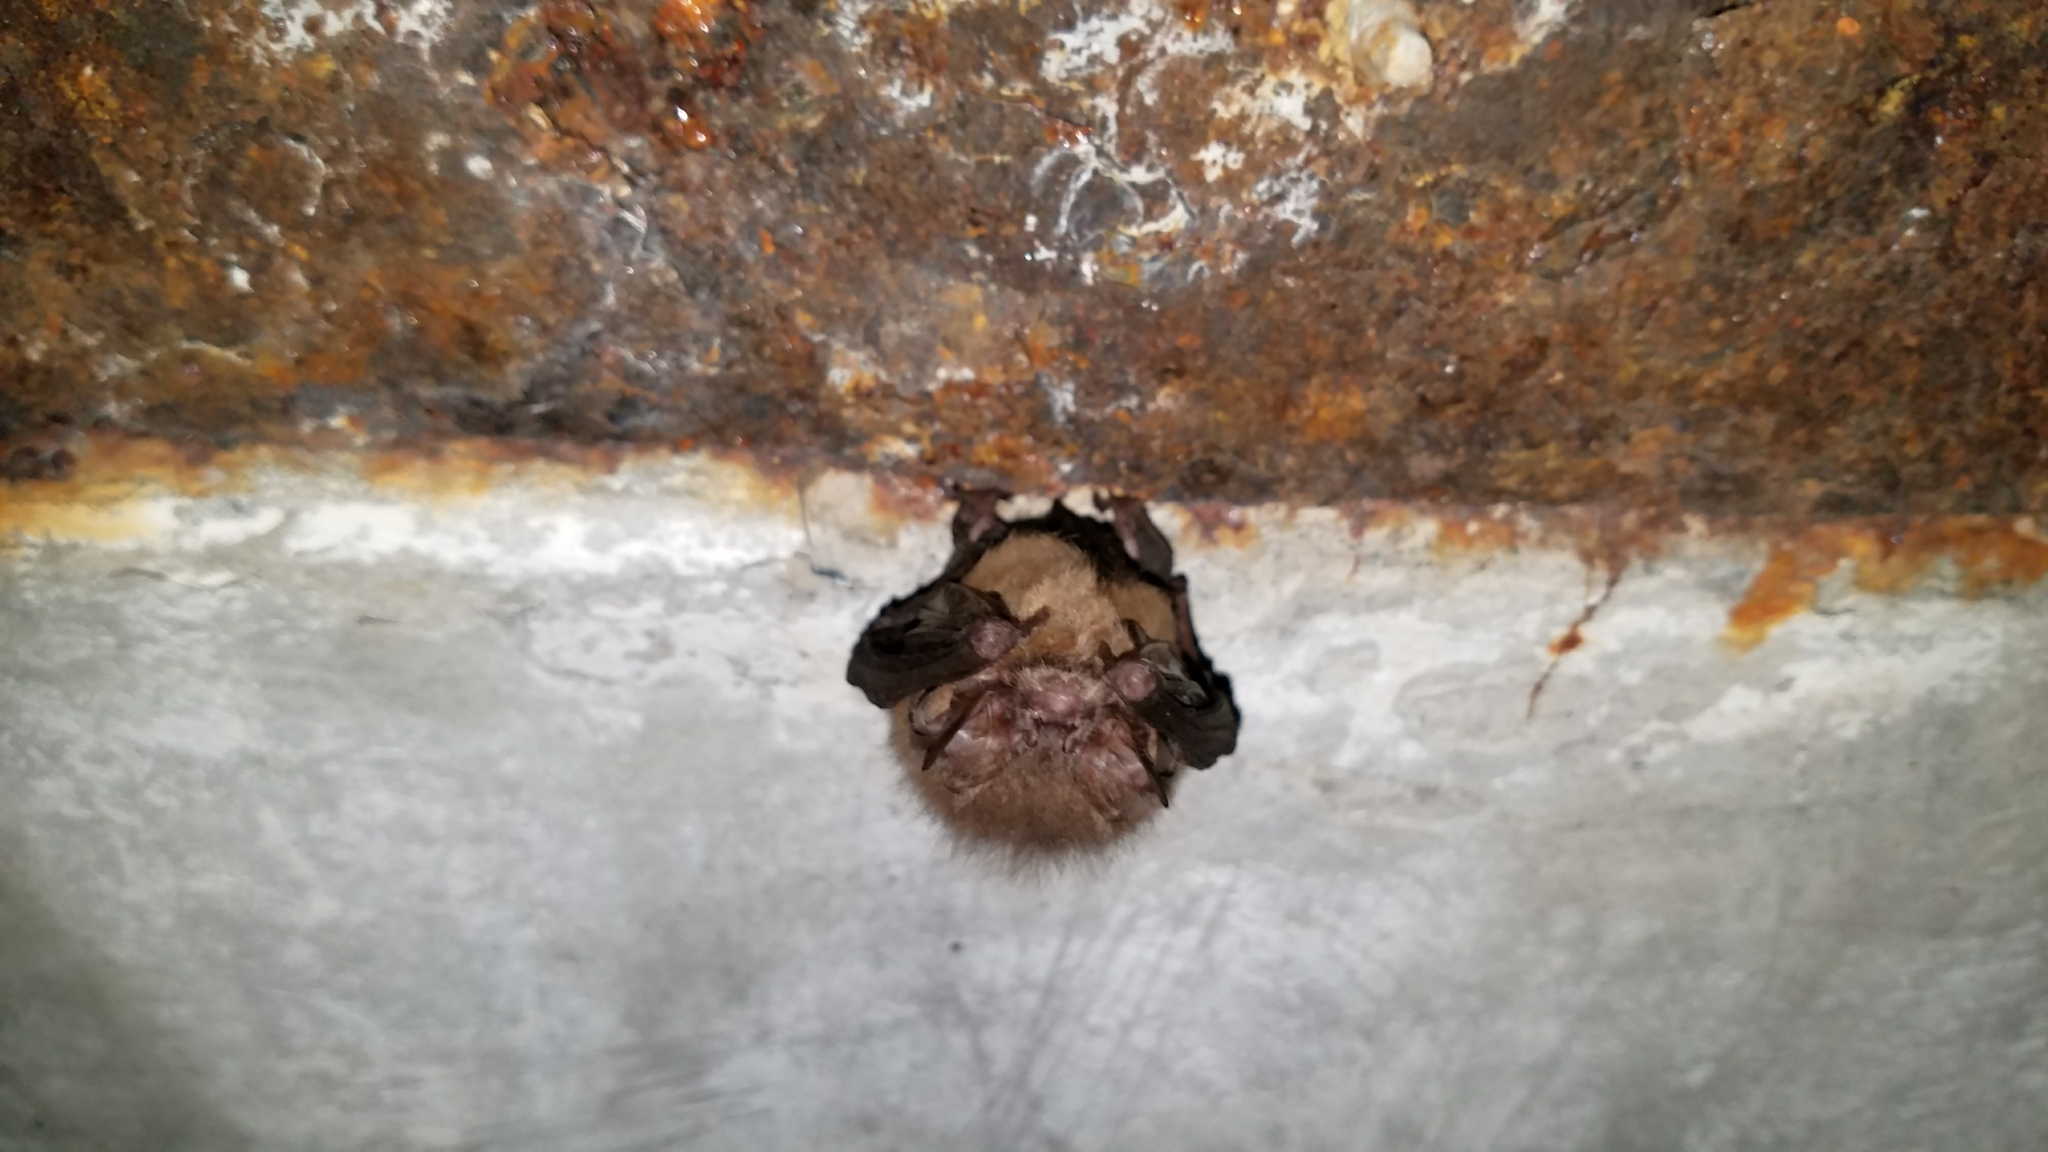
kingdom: Animalia
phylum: Chordata
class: Mammalia
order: Chiroptera
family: Vespertilionidae
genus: Corynorhinus
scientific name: Corynorhinus townsendii
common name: Townsend's big-eared bat
